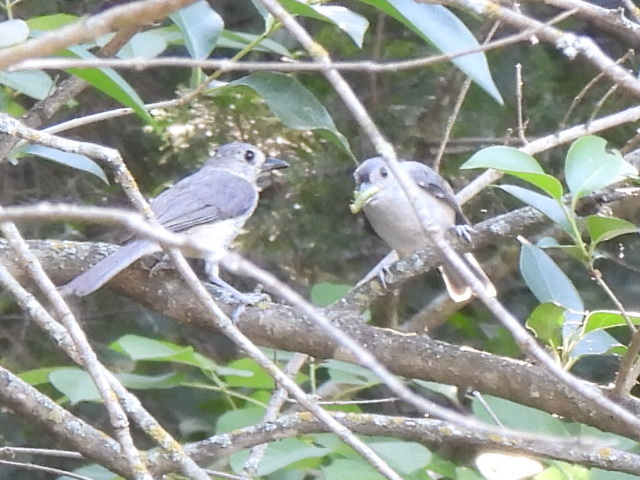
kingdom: Animalia
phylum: Chordata
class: Aves
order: Passeriformes
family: Paridae
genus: Baeolophus
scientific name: Baeolophus bicolor
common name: Tufted titmouse
